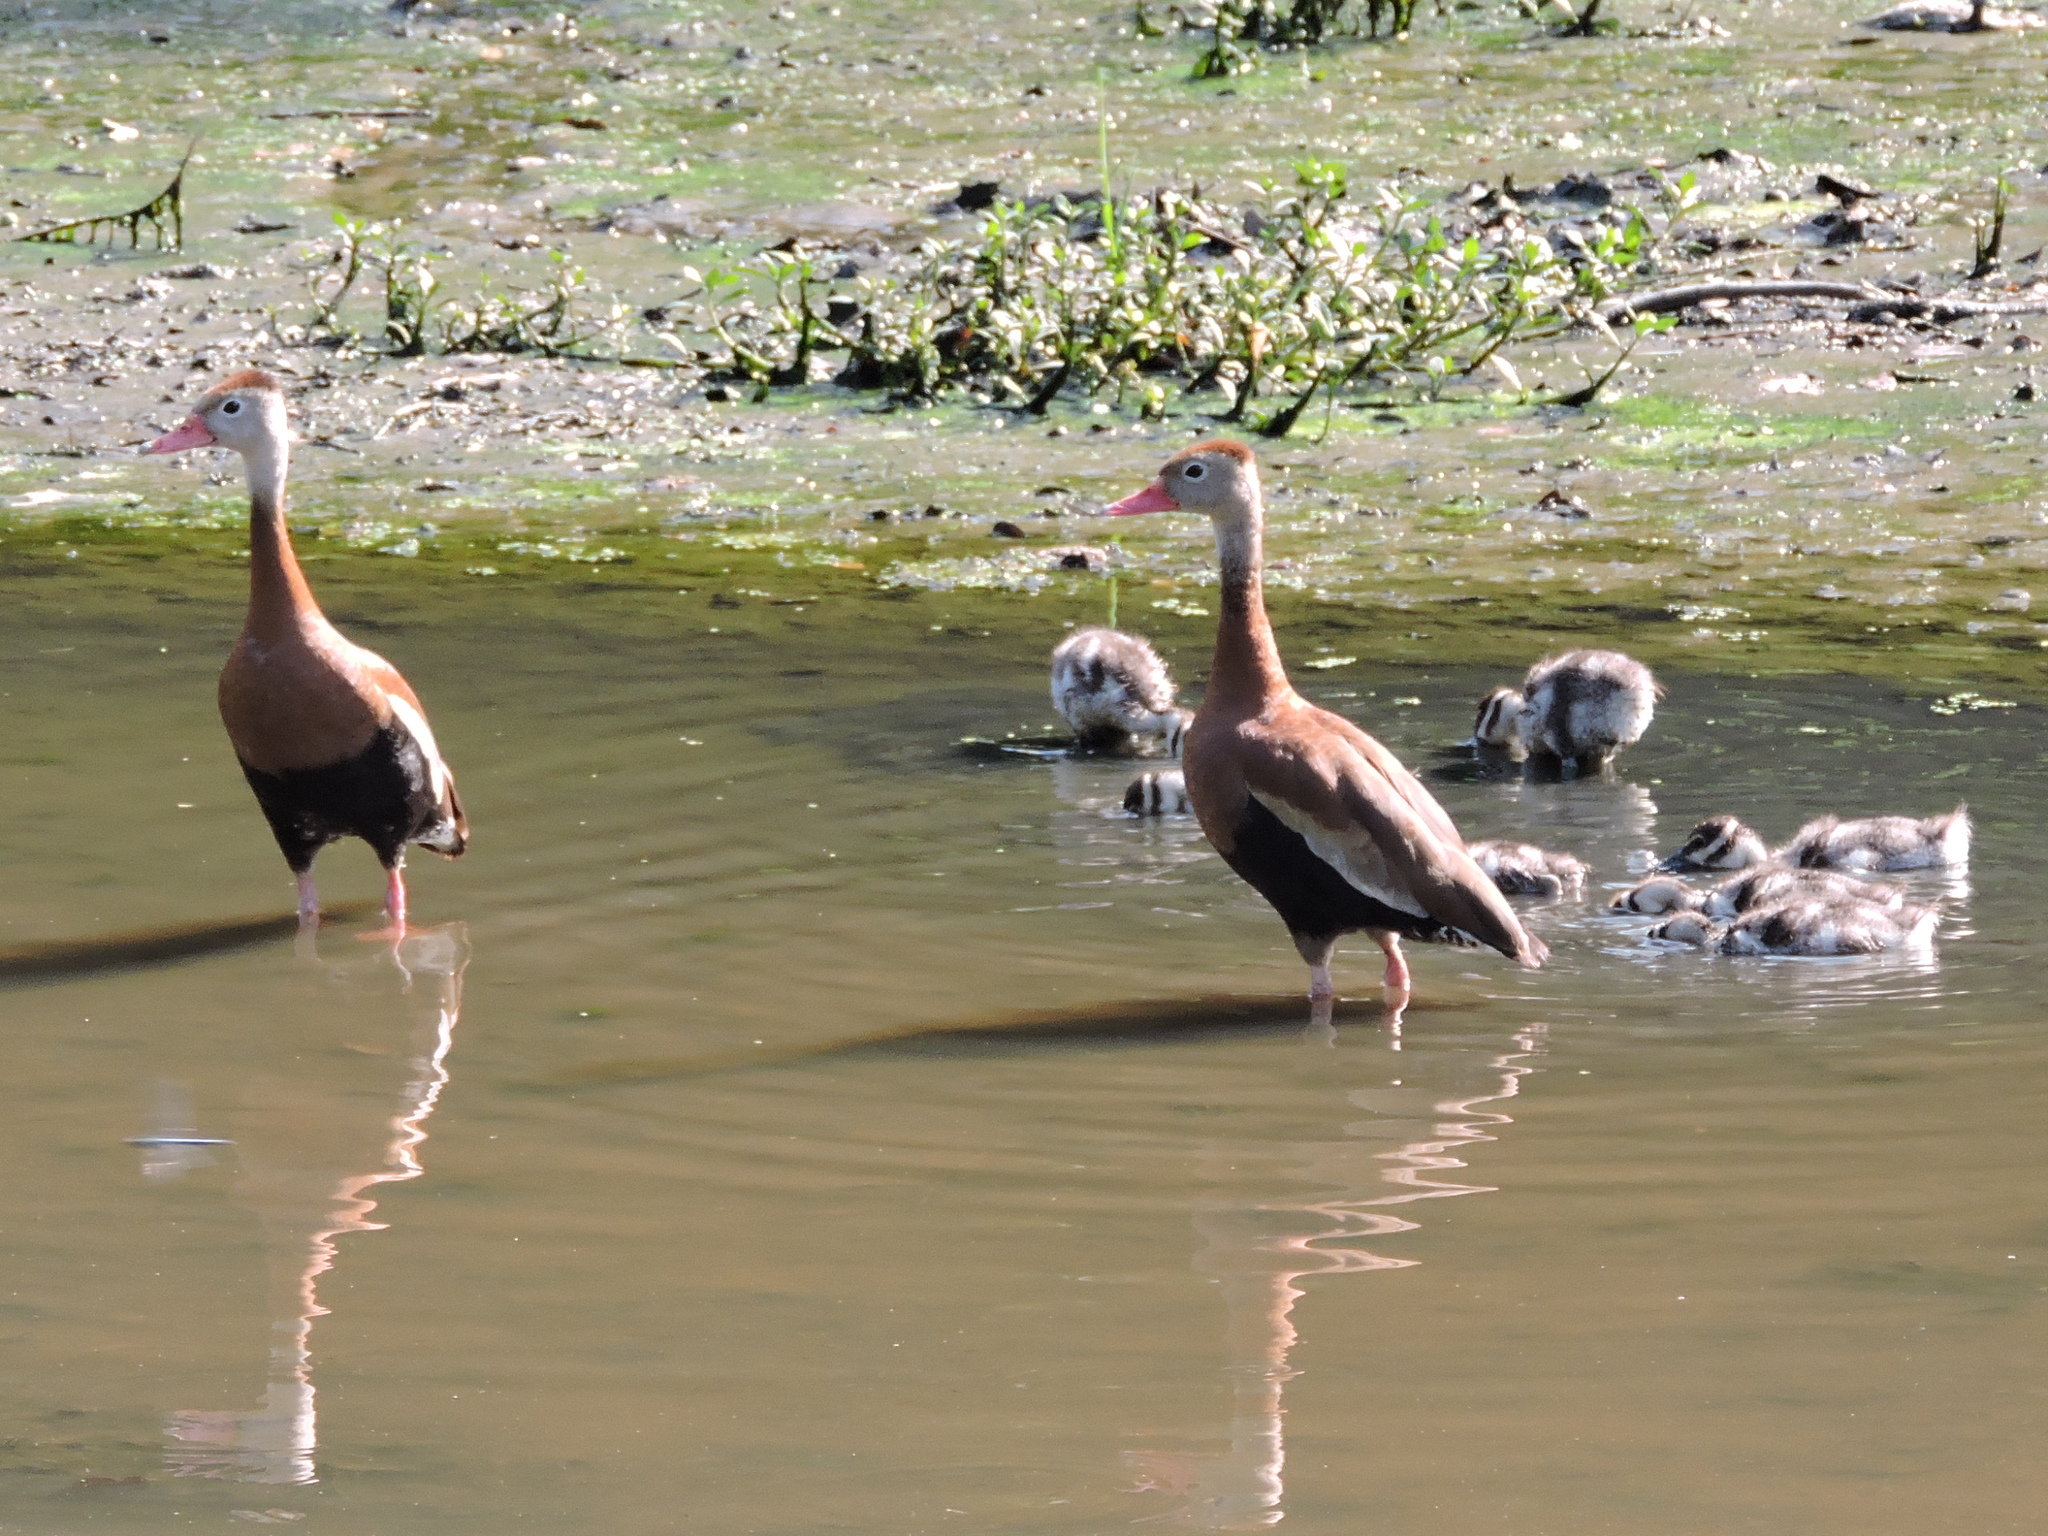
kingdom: Animalia
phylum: Chordata
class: Aves
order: Anseriformes
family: Anatidae
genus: Dendrocygna
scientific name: Dendrocygna autumnalis
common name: Black-bellied whistling duck
